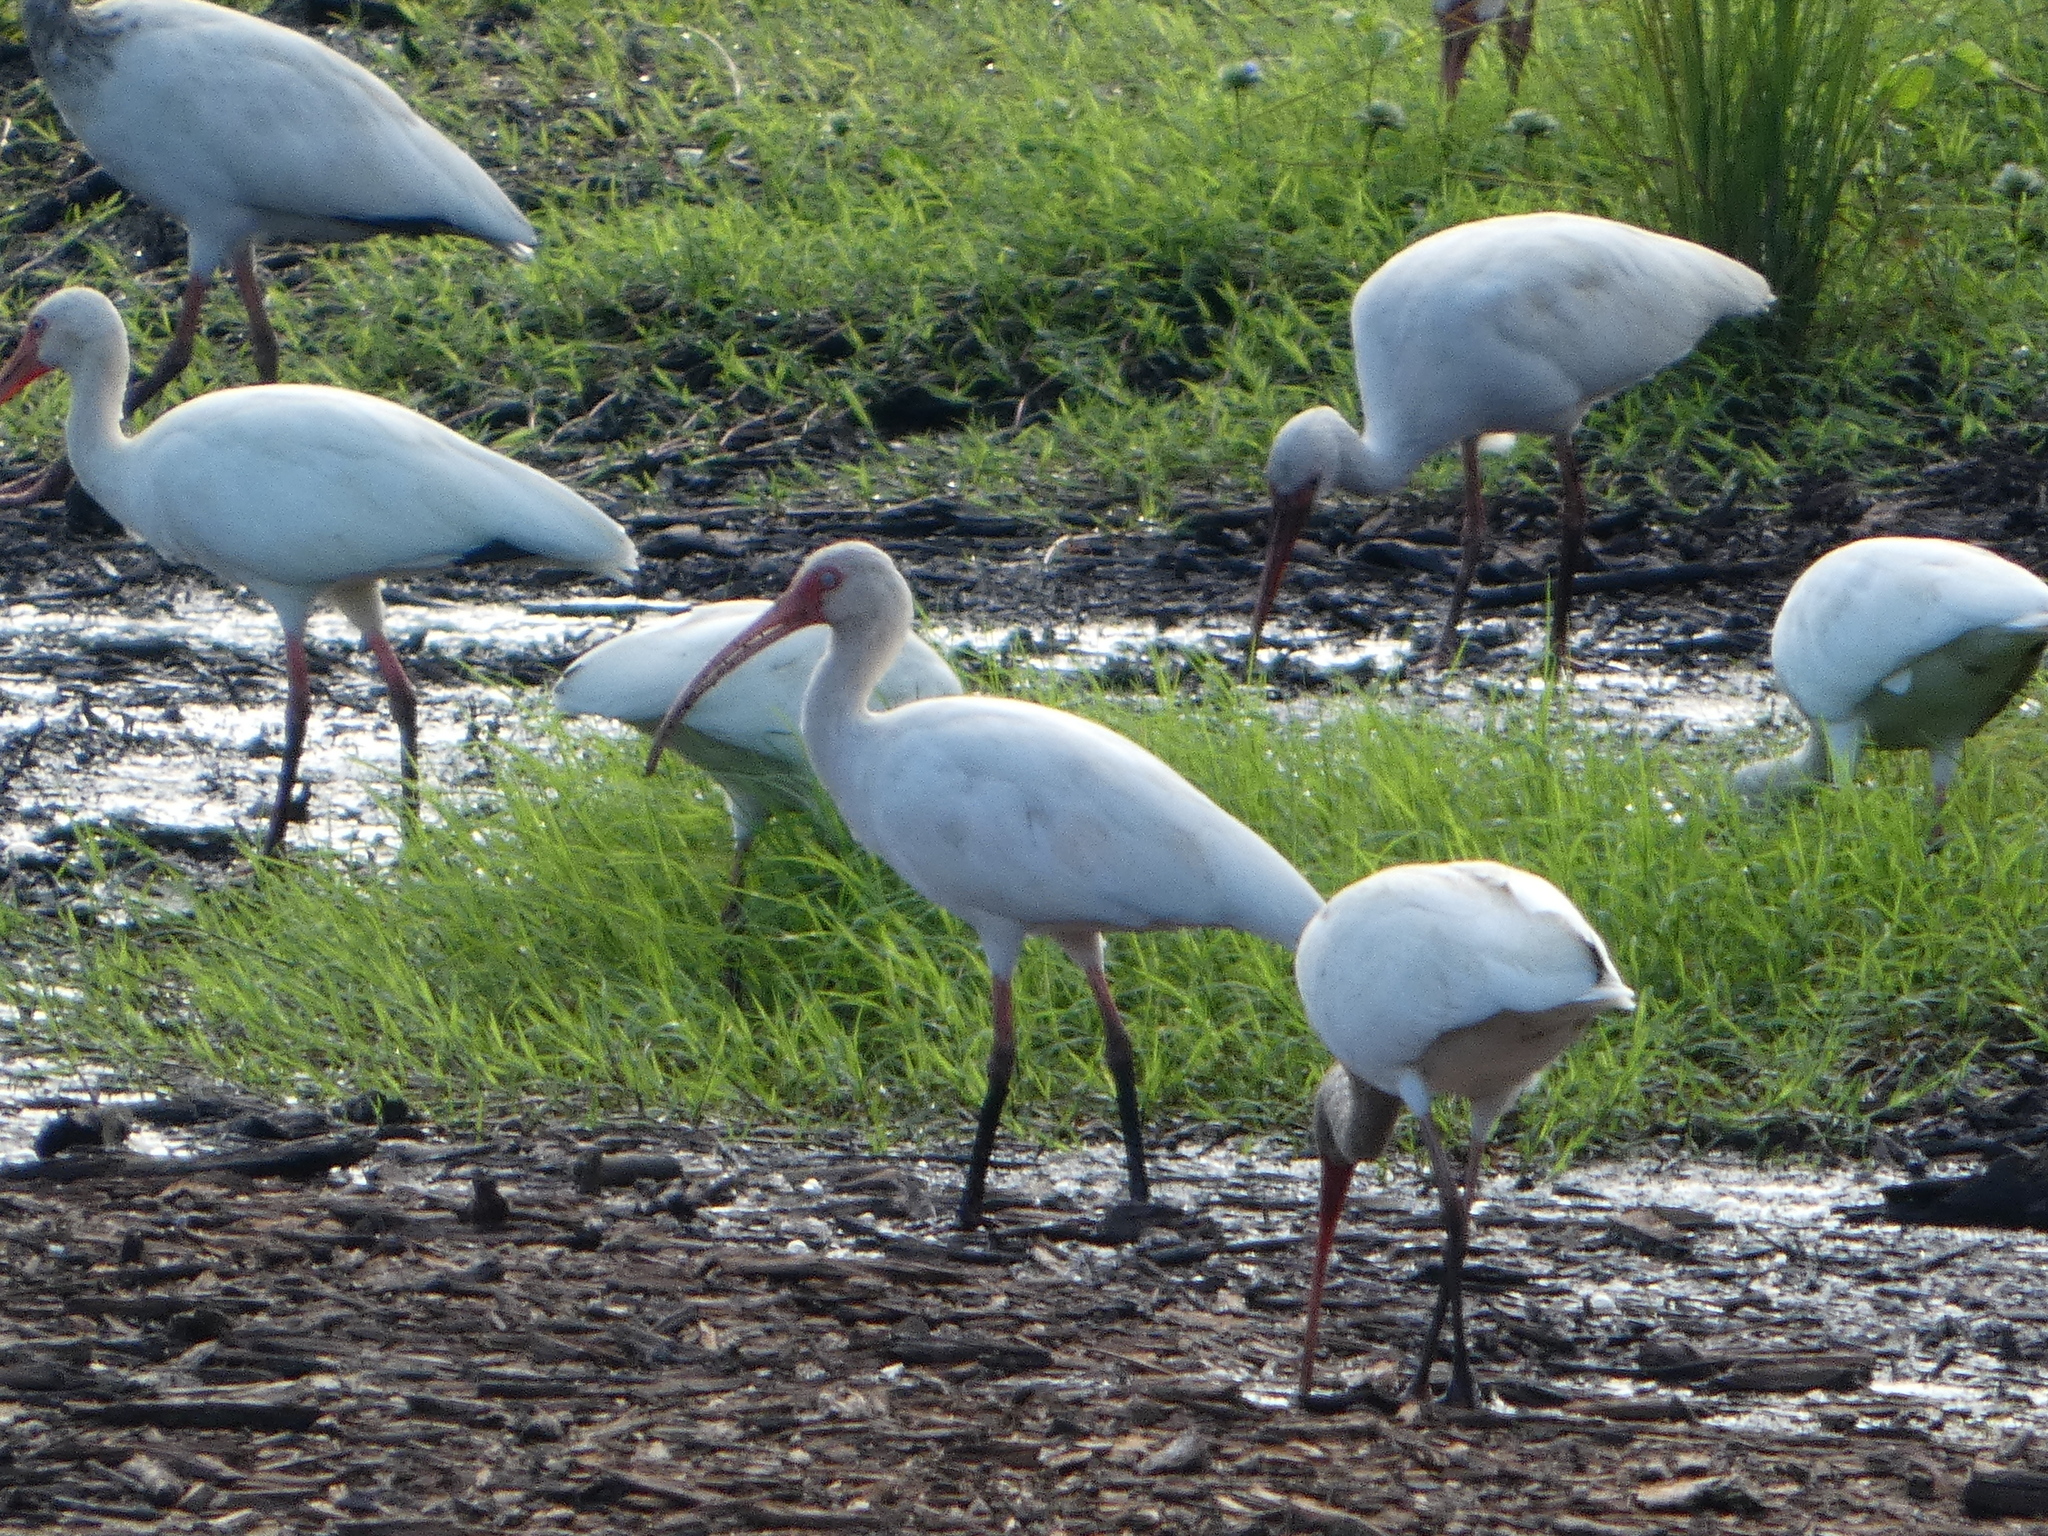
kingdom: Animalia
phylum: Chordata
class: Aves
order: Pelecaniformes
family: Threskiornithidae
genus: Eudocimus
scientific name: Eudocimus albus
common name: White ibis
